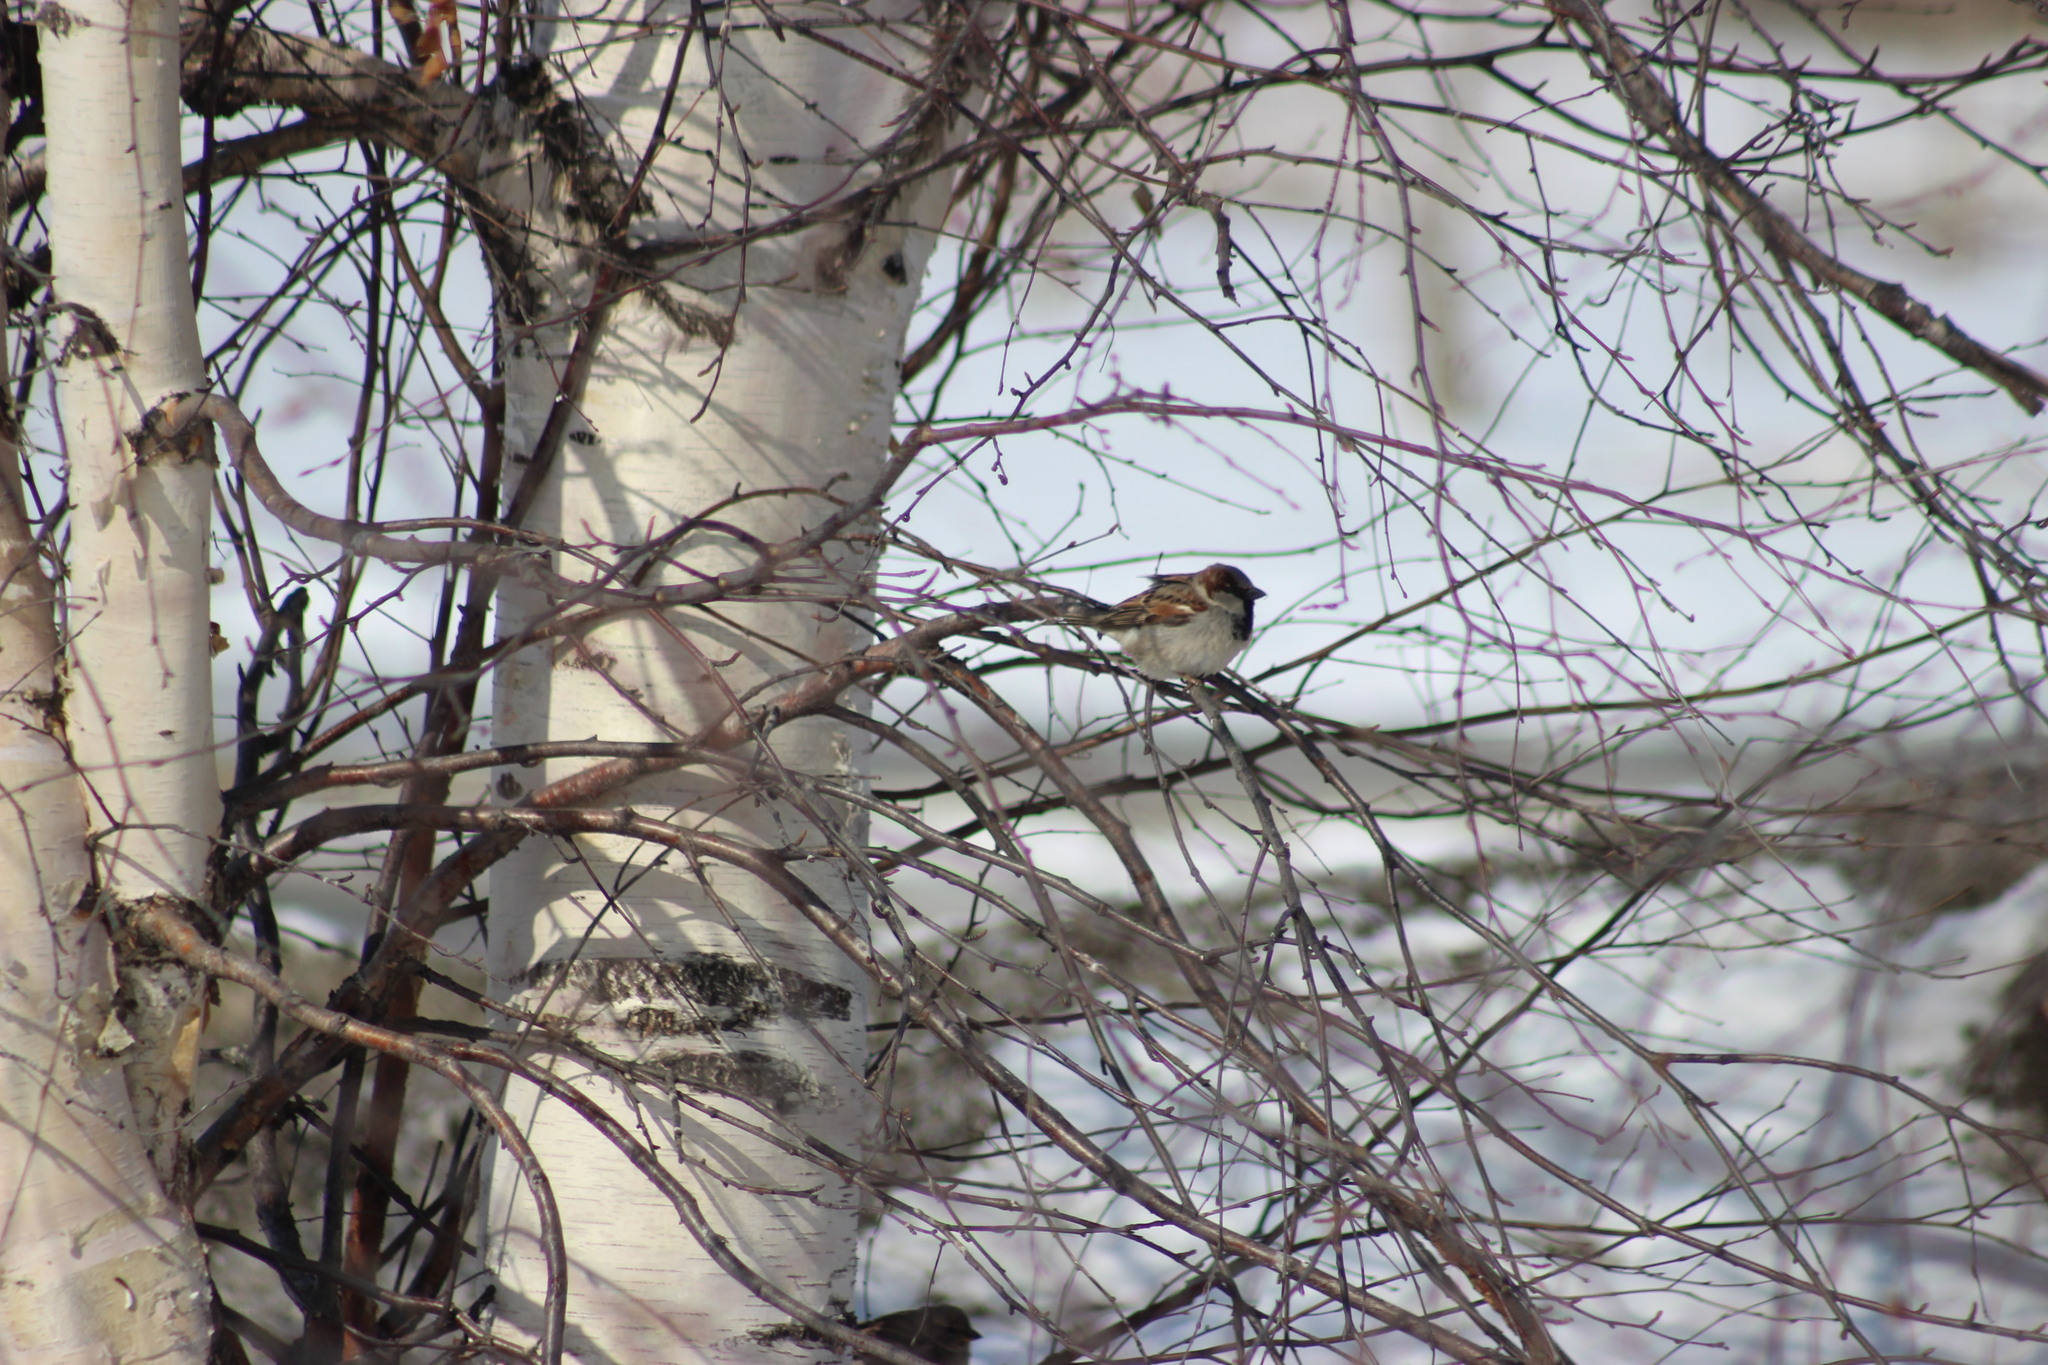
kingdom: Animalia
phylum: Chordata
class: Aves
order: Passeriformes
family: Passeridae
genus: Passer
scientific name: Passer domesticus
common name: House sparrow
